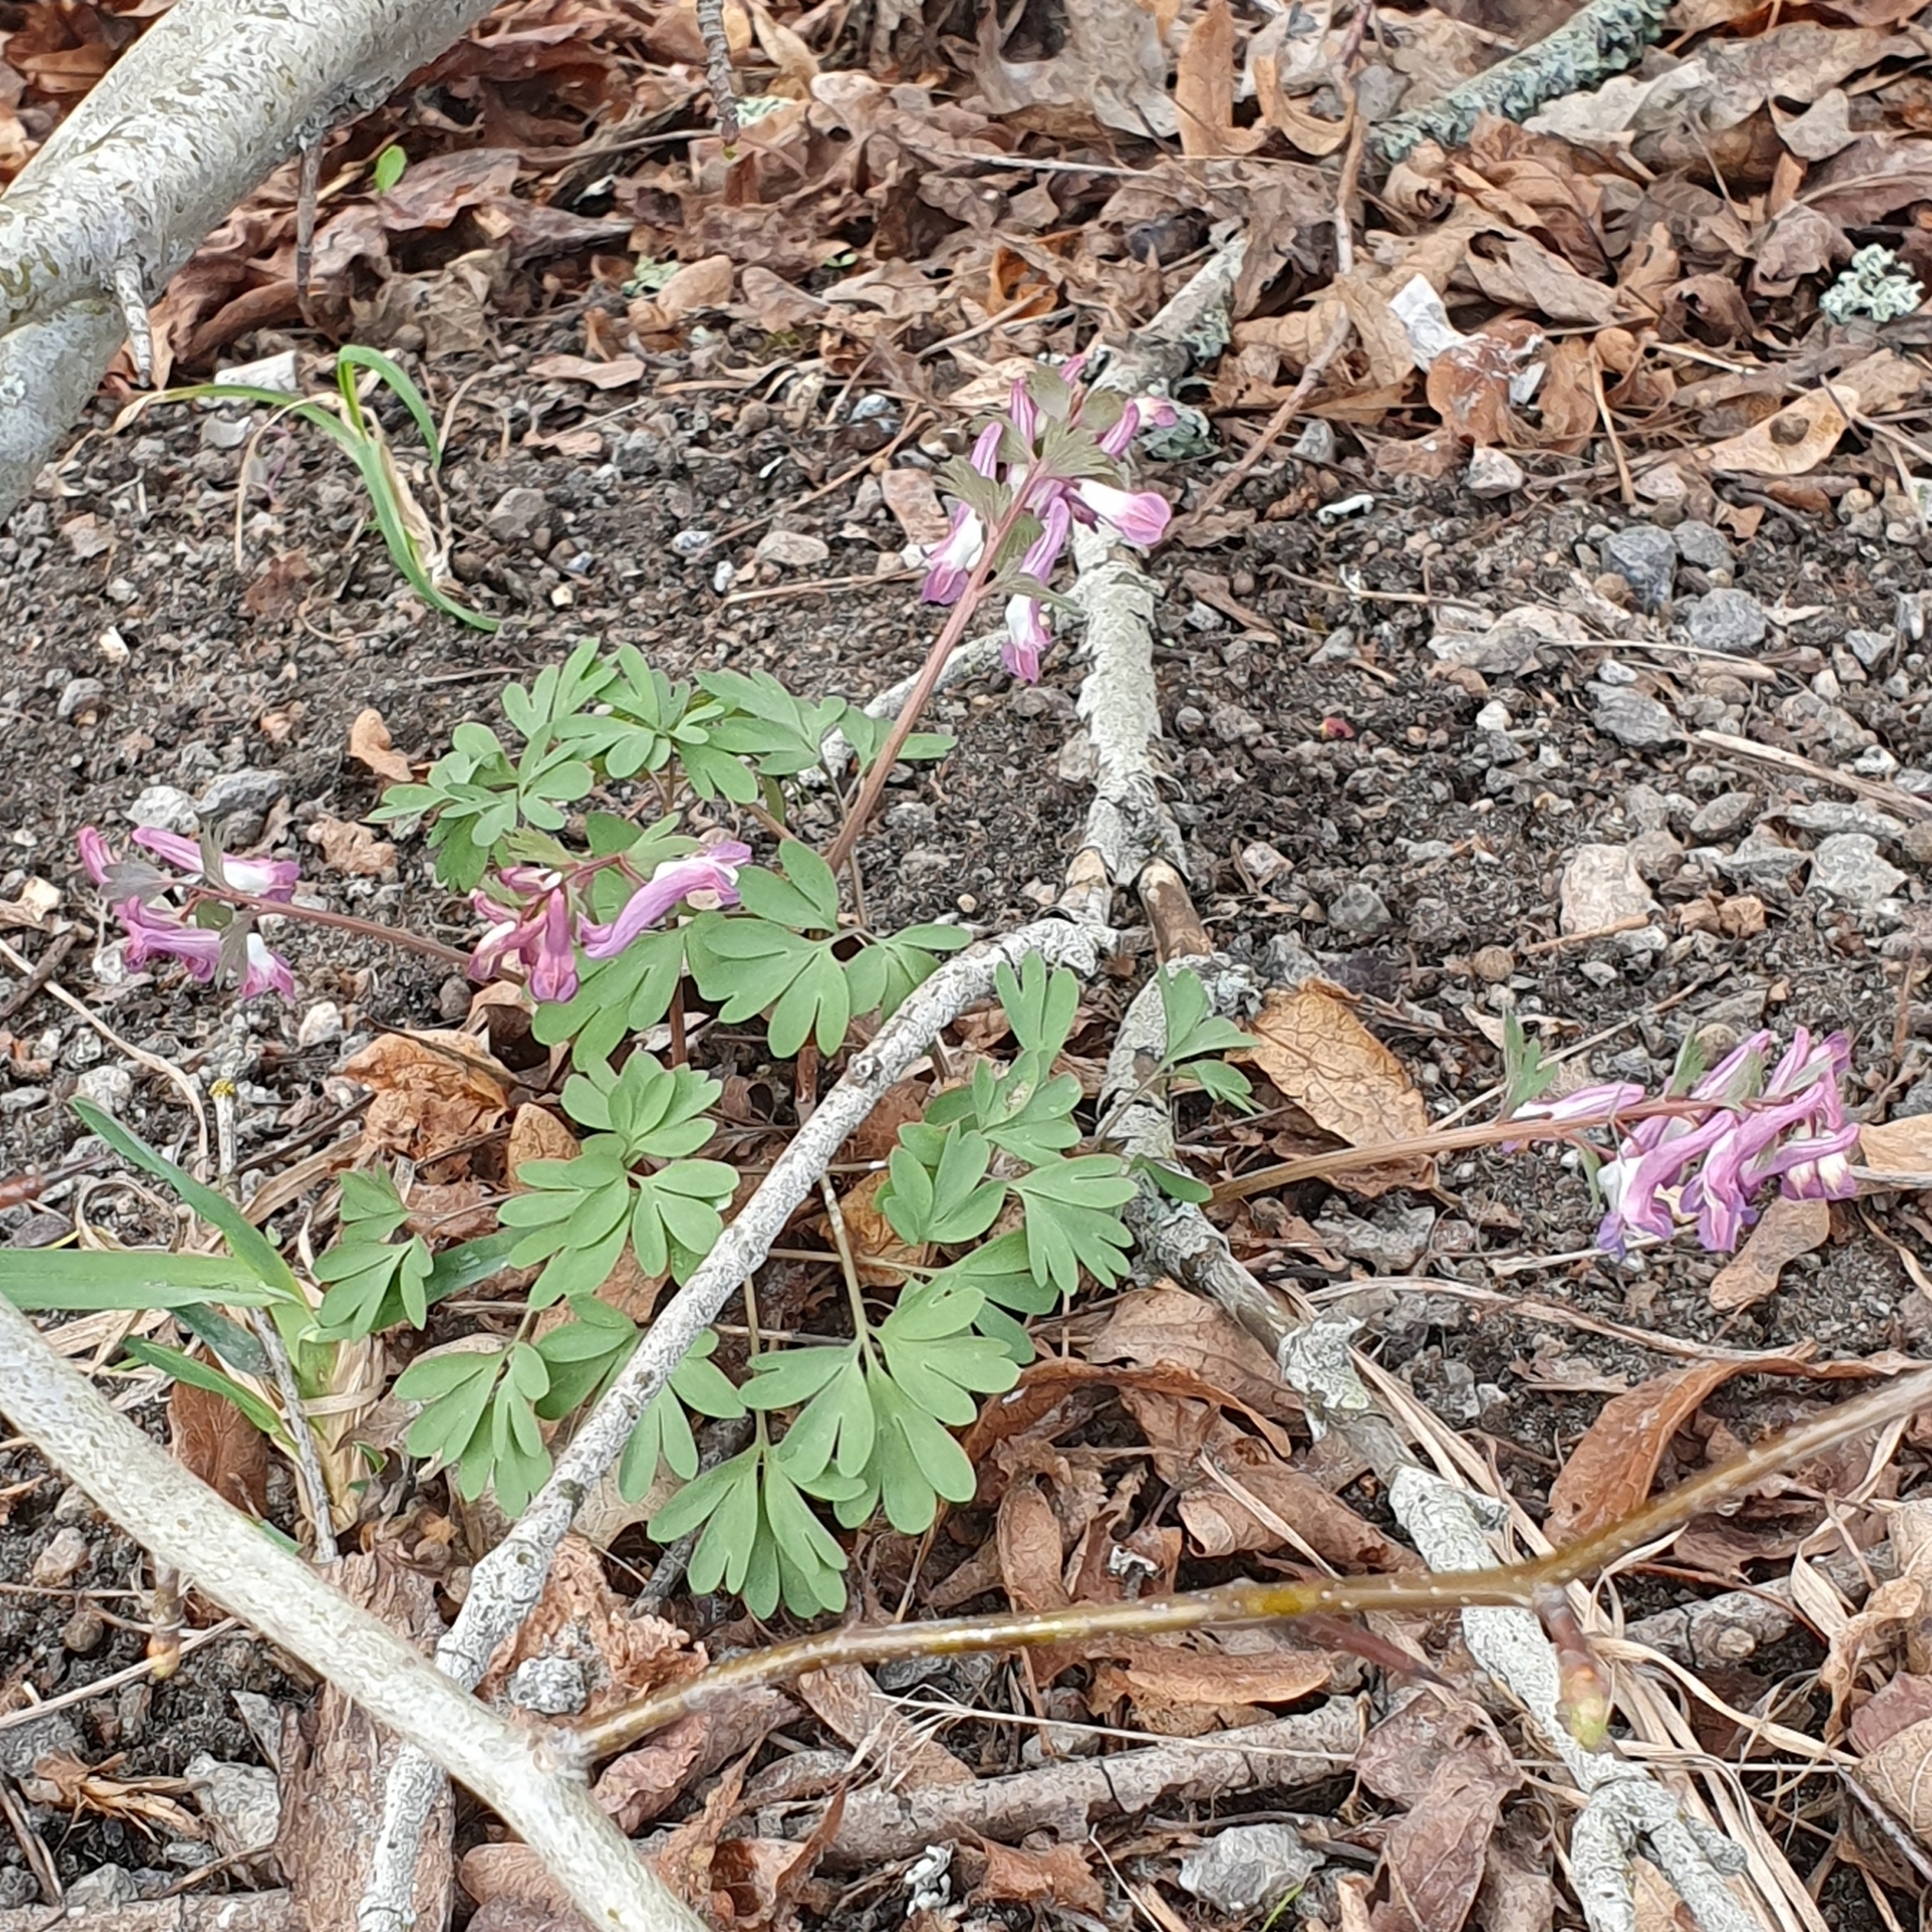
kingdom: Plantae
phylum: Tracheophyta
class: Magnoliopsida
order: Ranunculales
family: Papaveraceae
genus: Corydalis
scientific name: Corydalis solida
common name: Bird-in-a-bush
